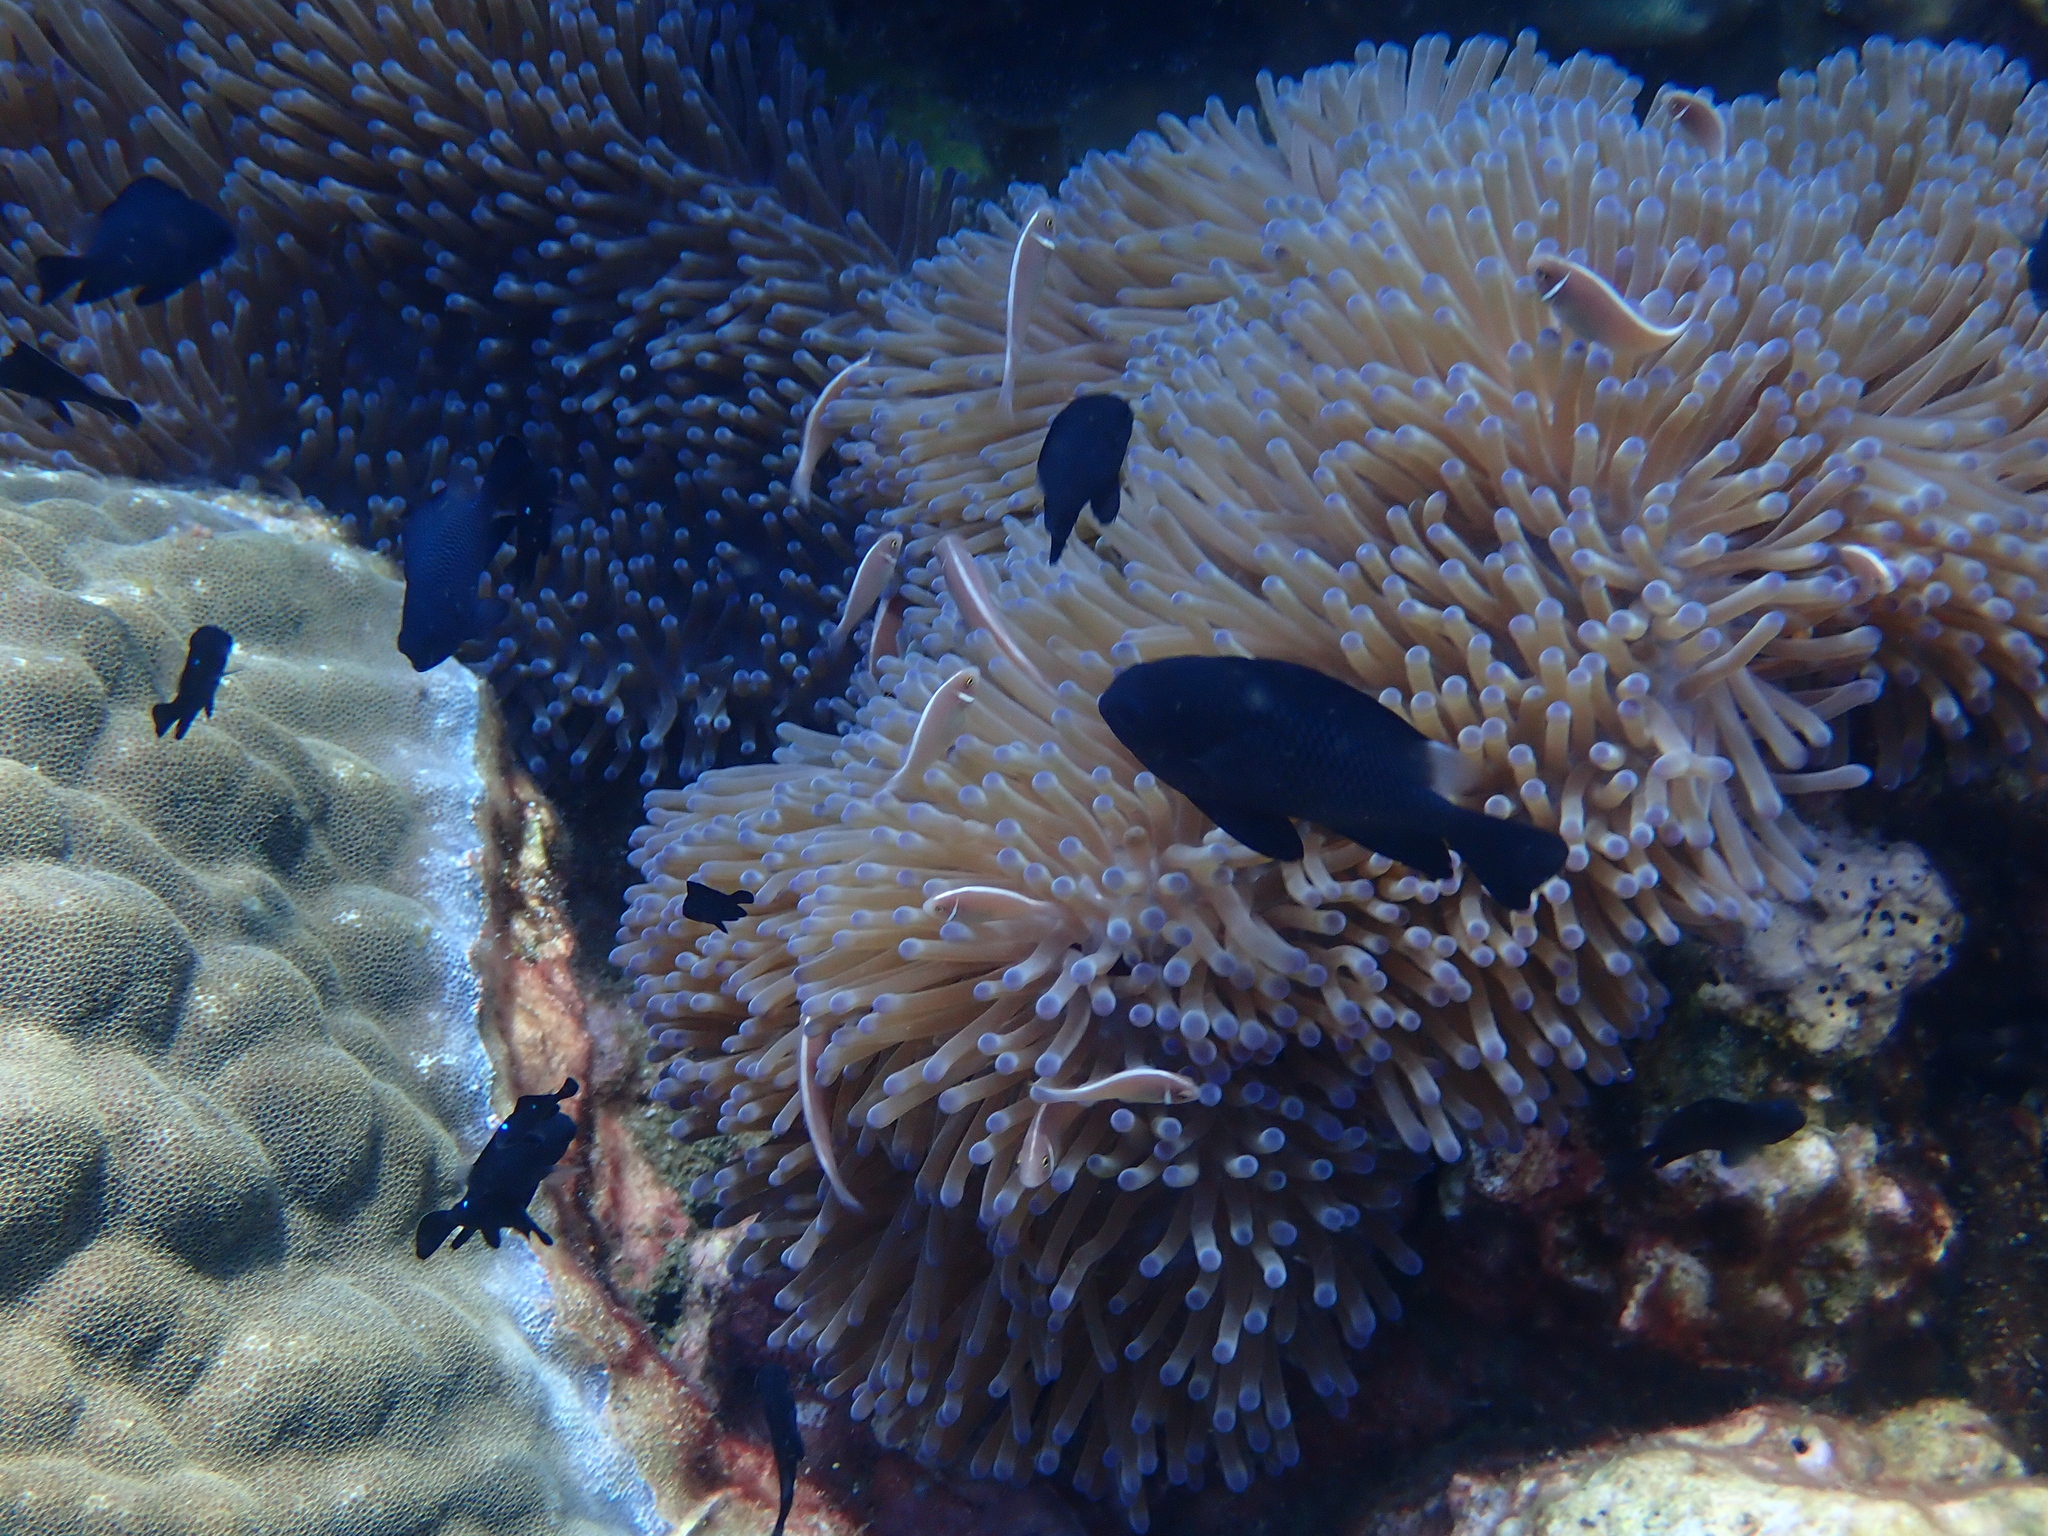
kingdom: Animalia
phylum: Chordata
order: Perciformes
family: Pomacentridae
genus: Dascyllus
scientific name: Dascyllus trimaculatus
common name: Threespot dascyllus
